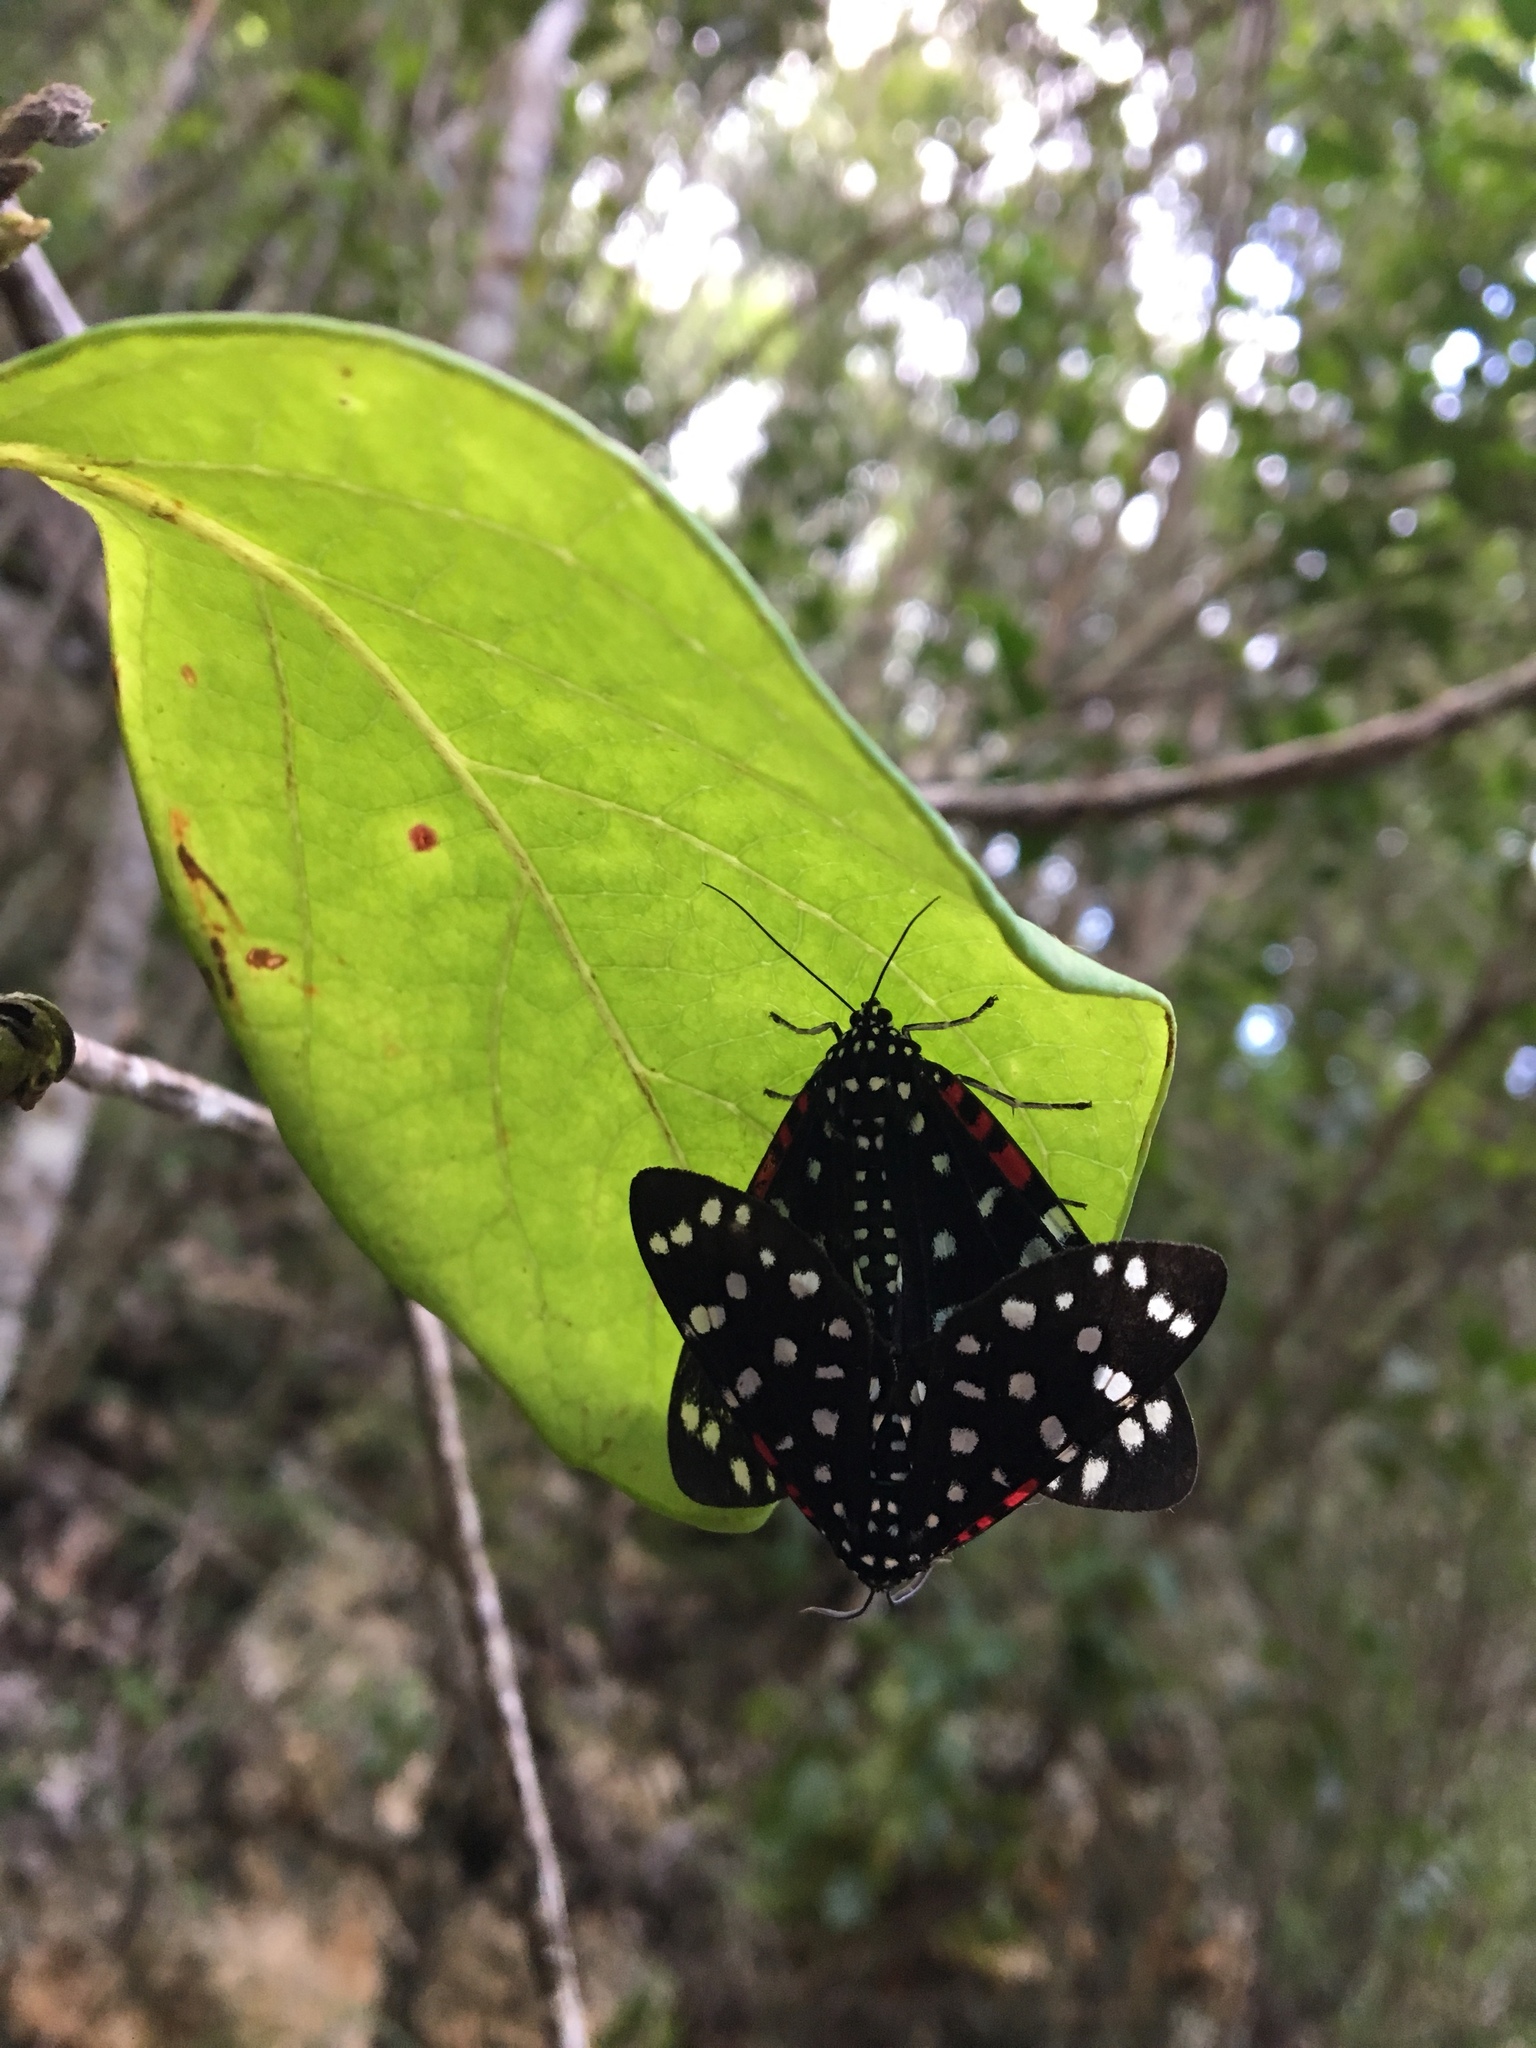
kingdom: Animalia
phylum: Arthropoda
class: Insecta
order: Lepidoptera
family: Erebidae
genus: Composia
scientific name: Composia credula
